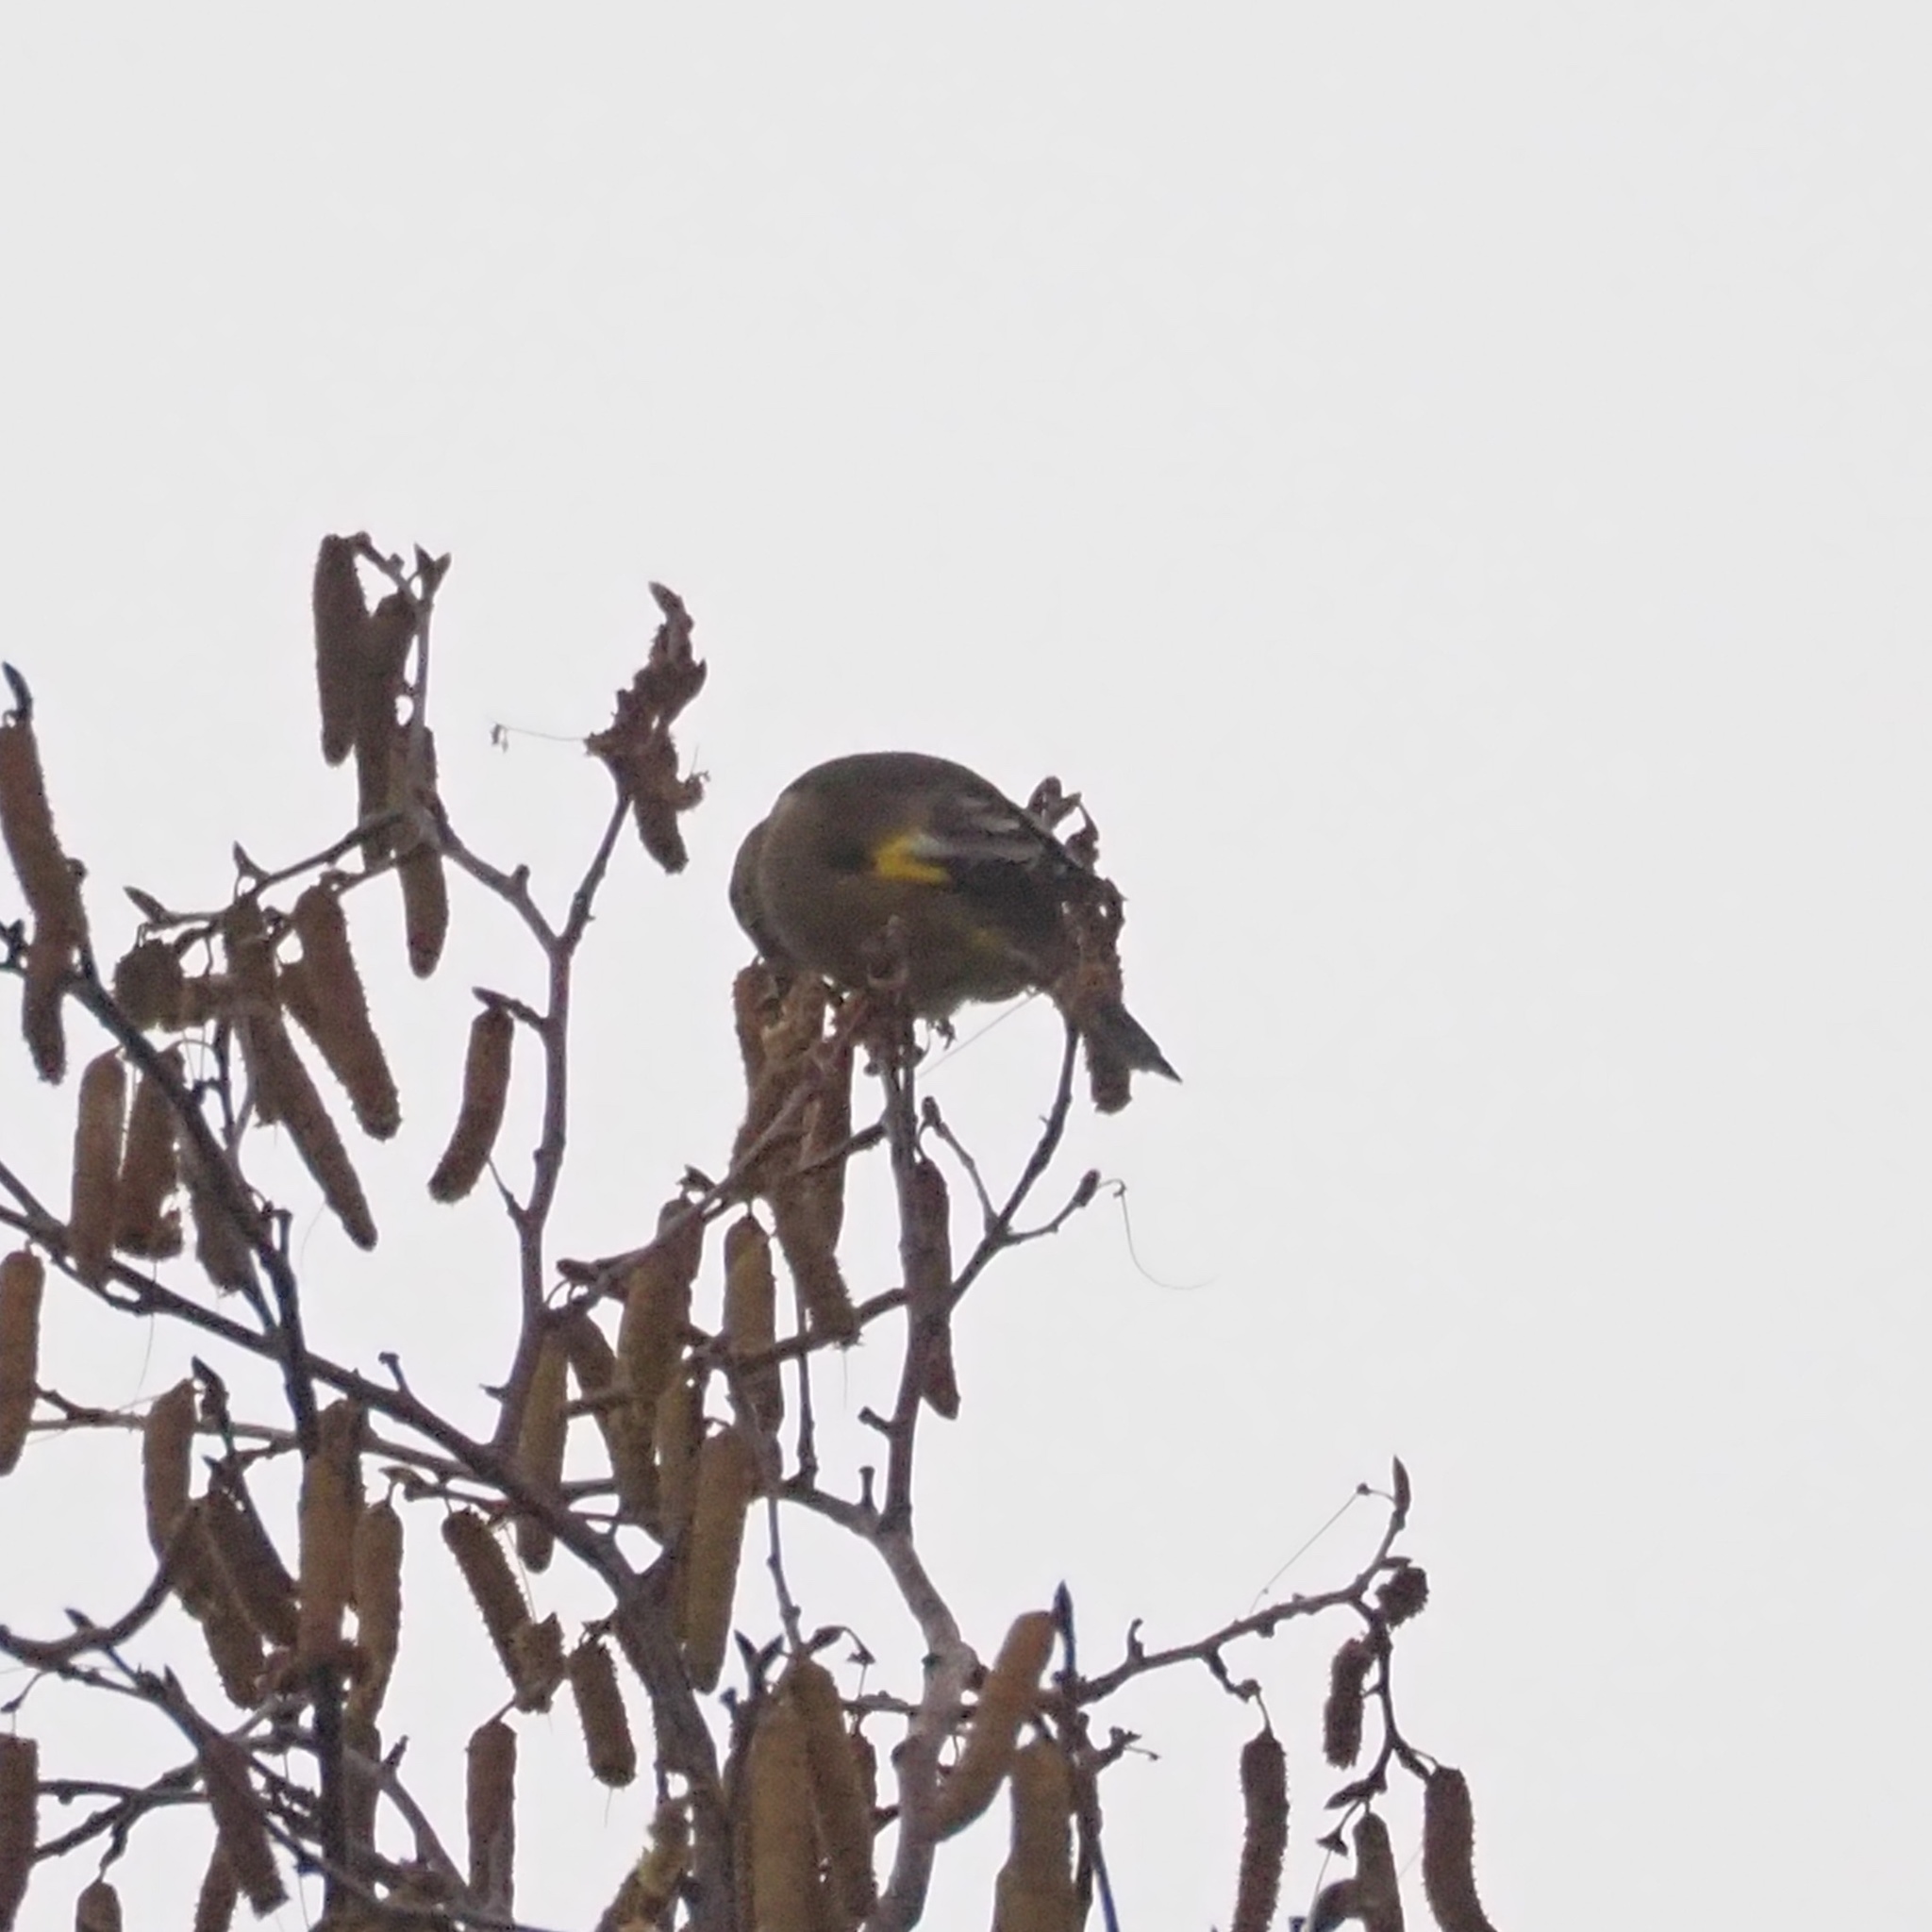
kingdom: Plantae
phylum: Tracheophyta
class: Liliopsida
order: Poales
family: Poaceae
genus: Chloris
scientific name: Chloris sinica
